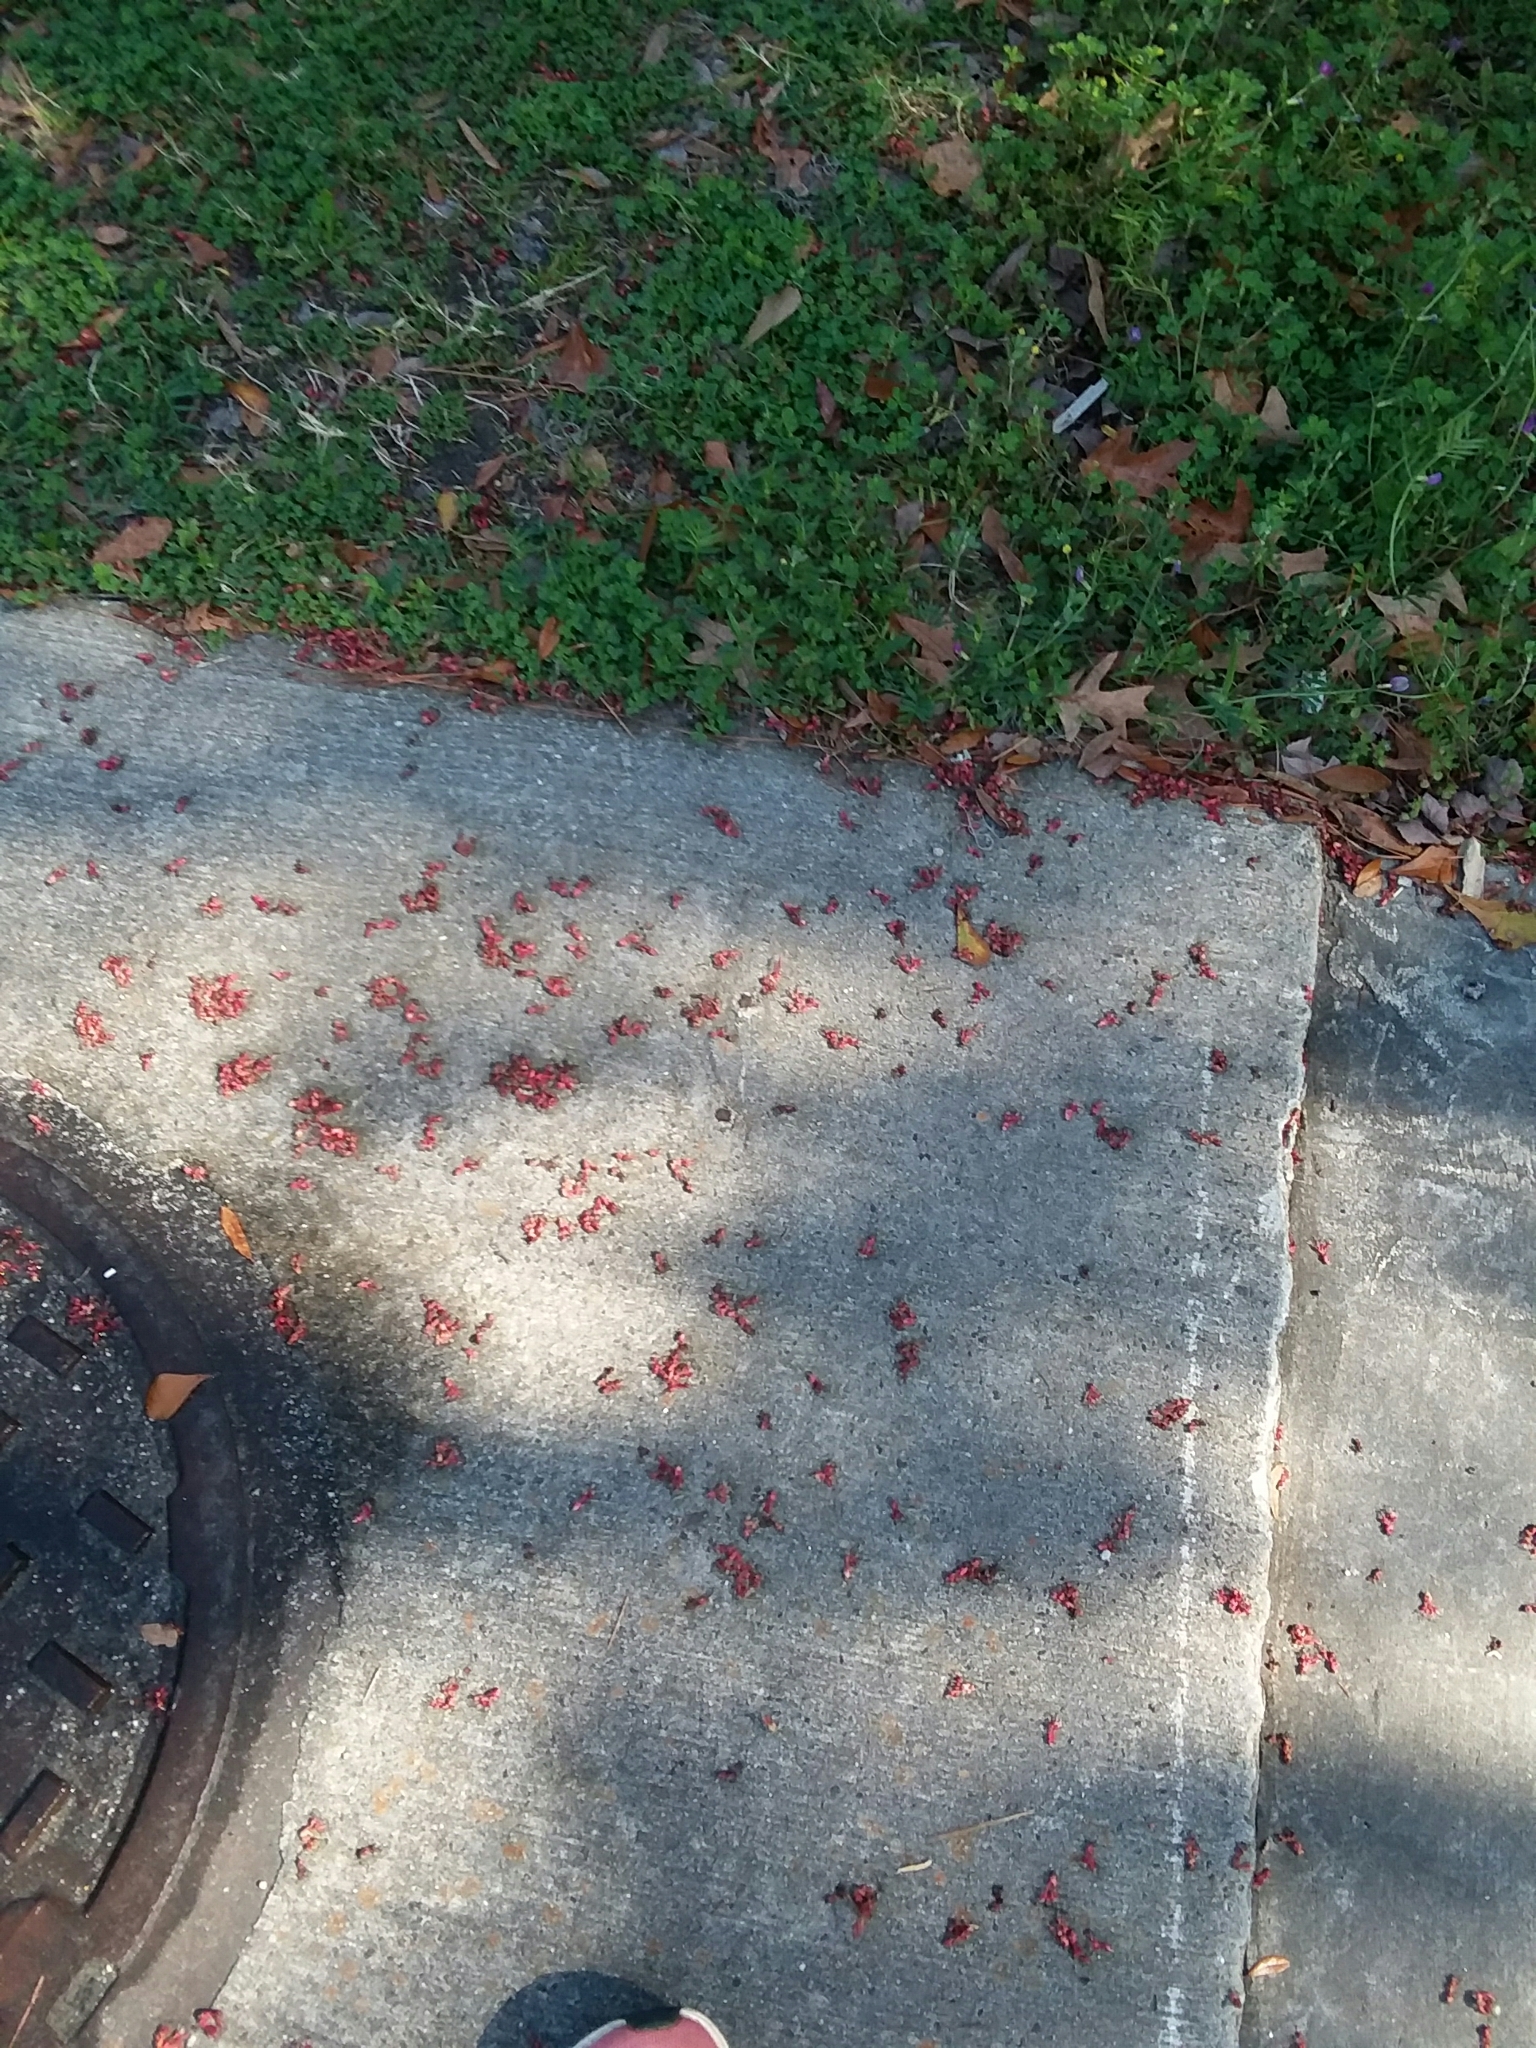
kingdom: Plantae
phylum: Tracheophyta
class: Magnoliopsida
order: Sapindales
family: Sapindaceae
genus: Acer
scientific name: Acer rubrum
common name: Red maple
